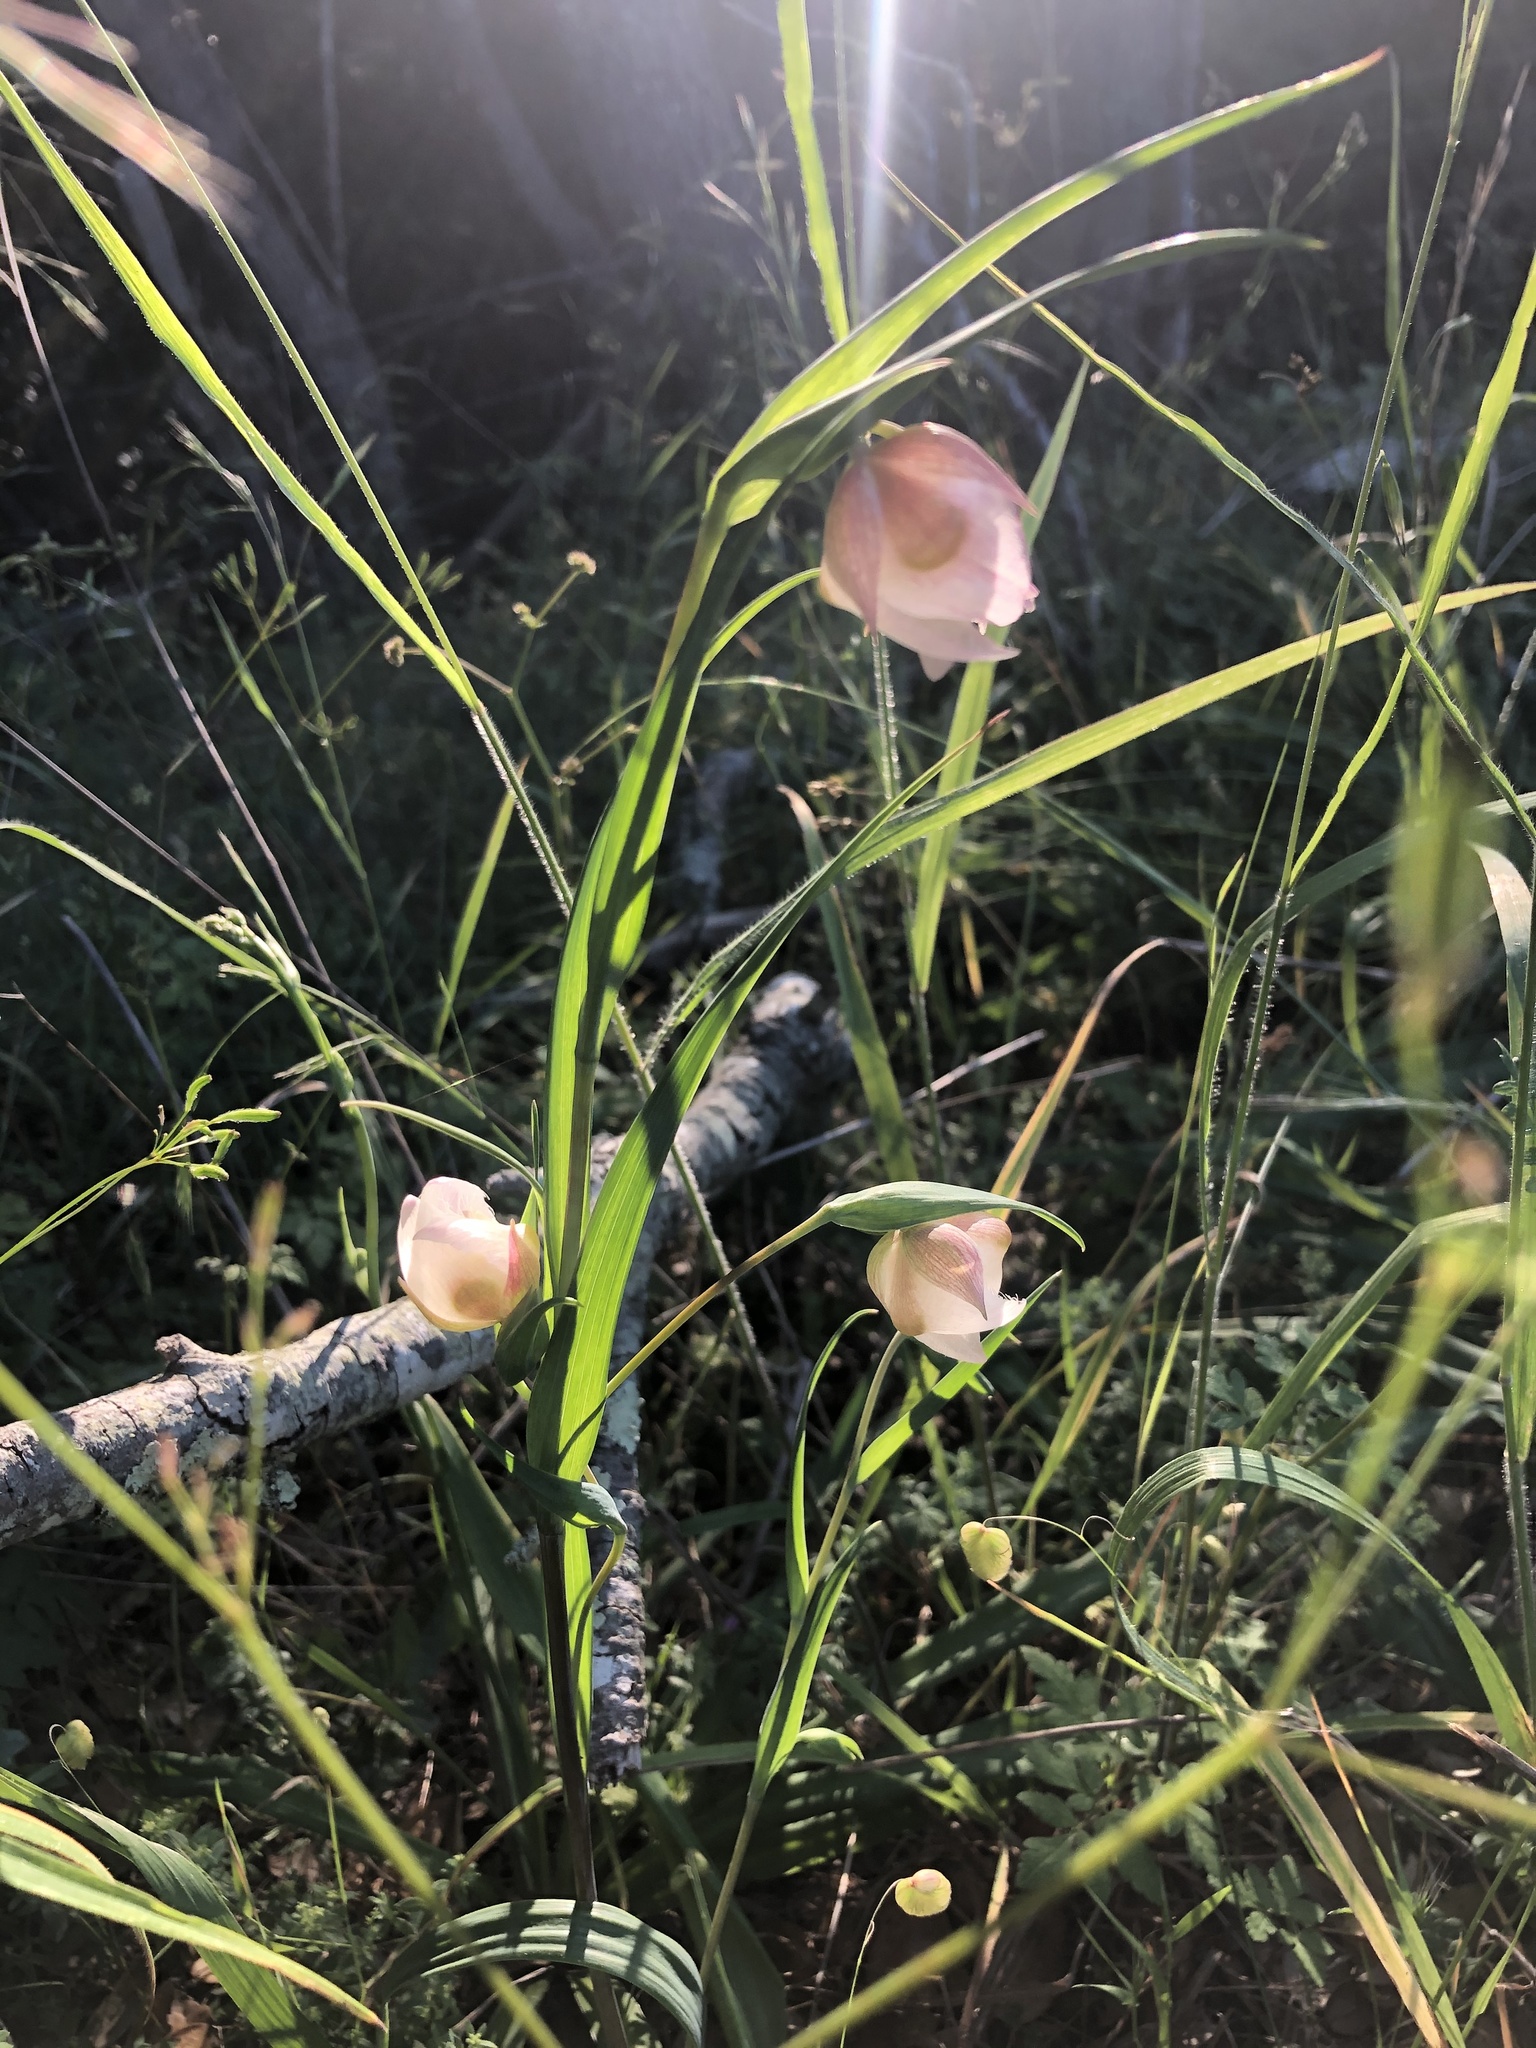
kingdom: Plantae
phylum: Tracheophyta
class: Liliopsida
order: Liliales
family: Liliaceae
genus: Calochortus
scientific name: Calochortus albus
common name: Fairy-lantern
